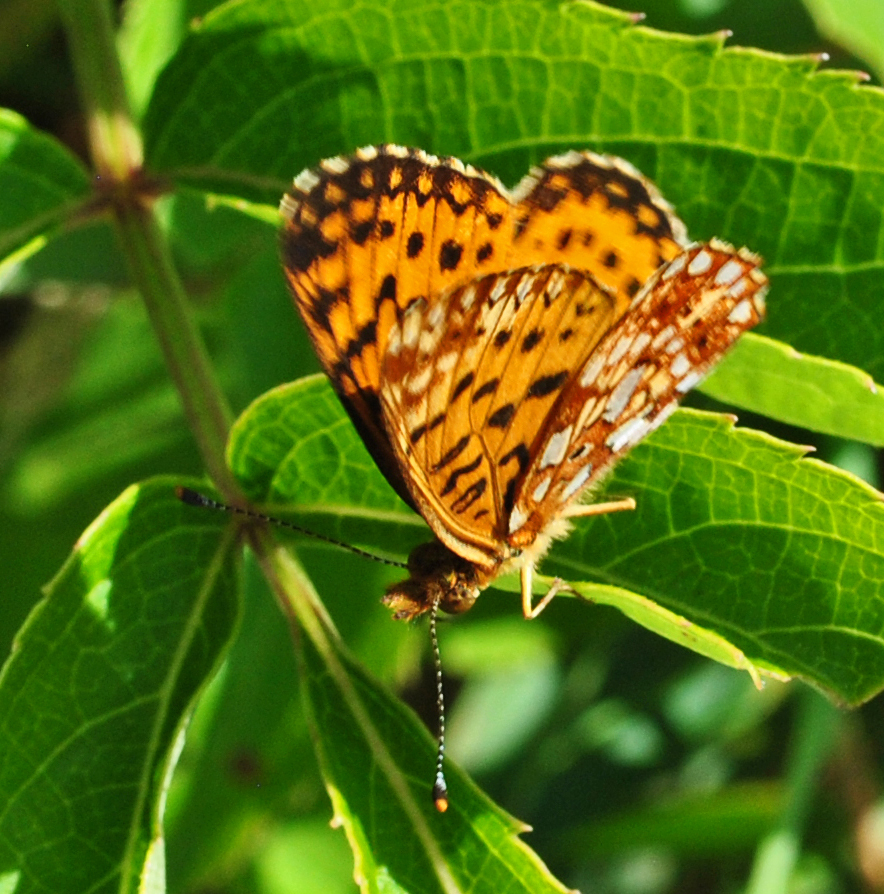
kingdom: Animalia
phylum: Arthropoda
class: Insecta
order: Lepidoptera
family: Nymphalidae
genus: Boloria
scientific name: Boloria
